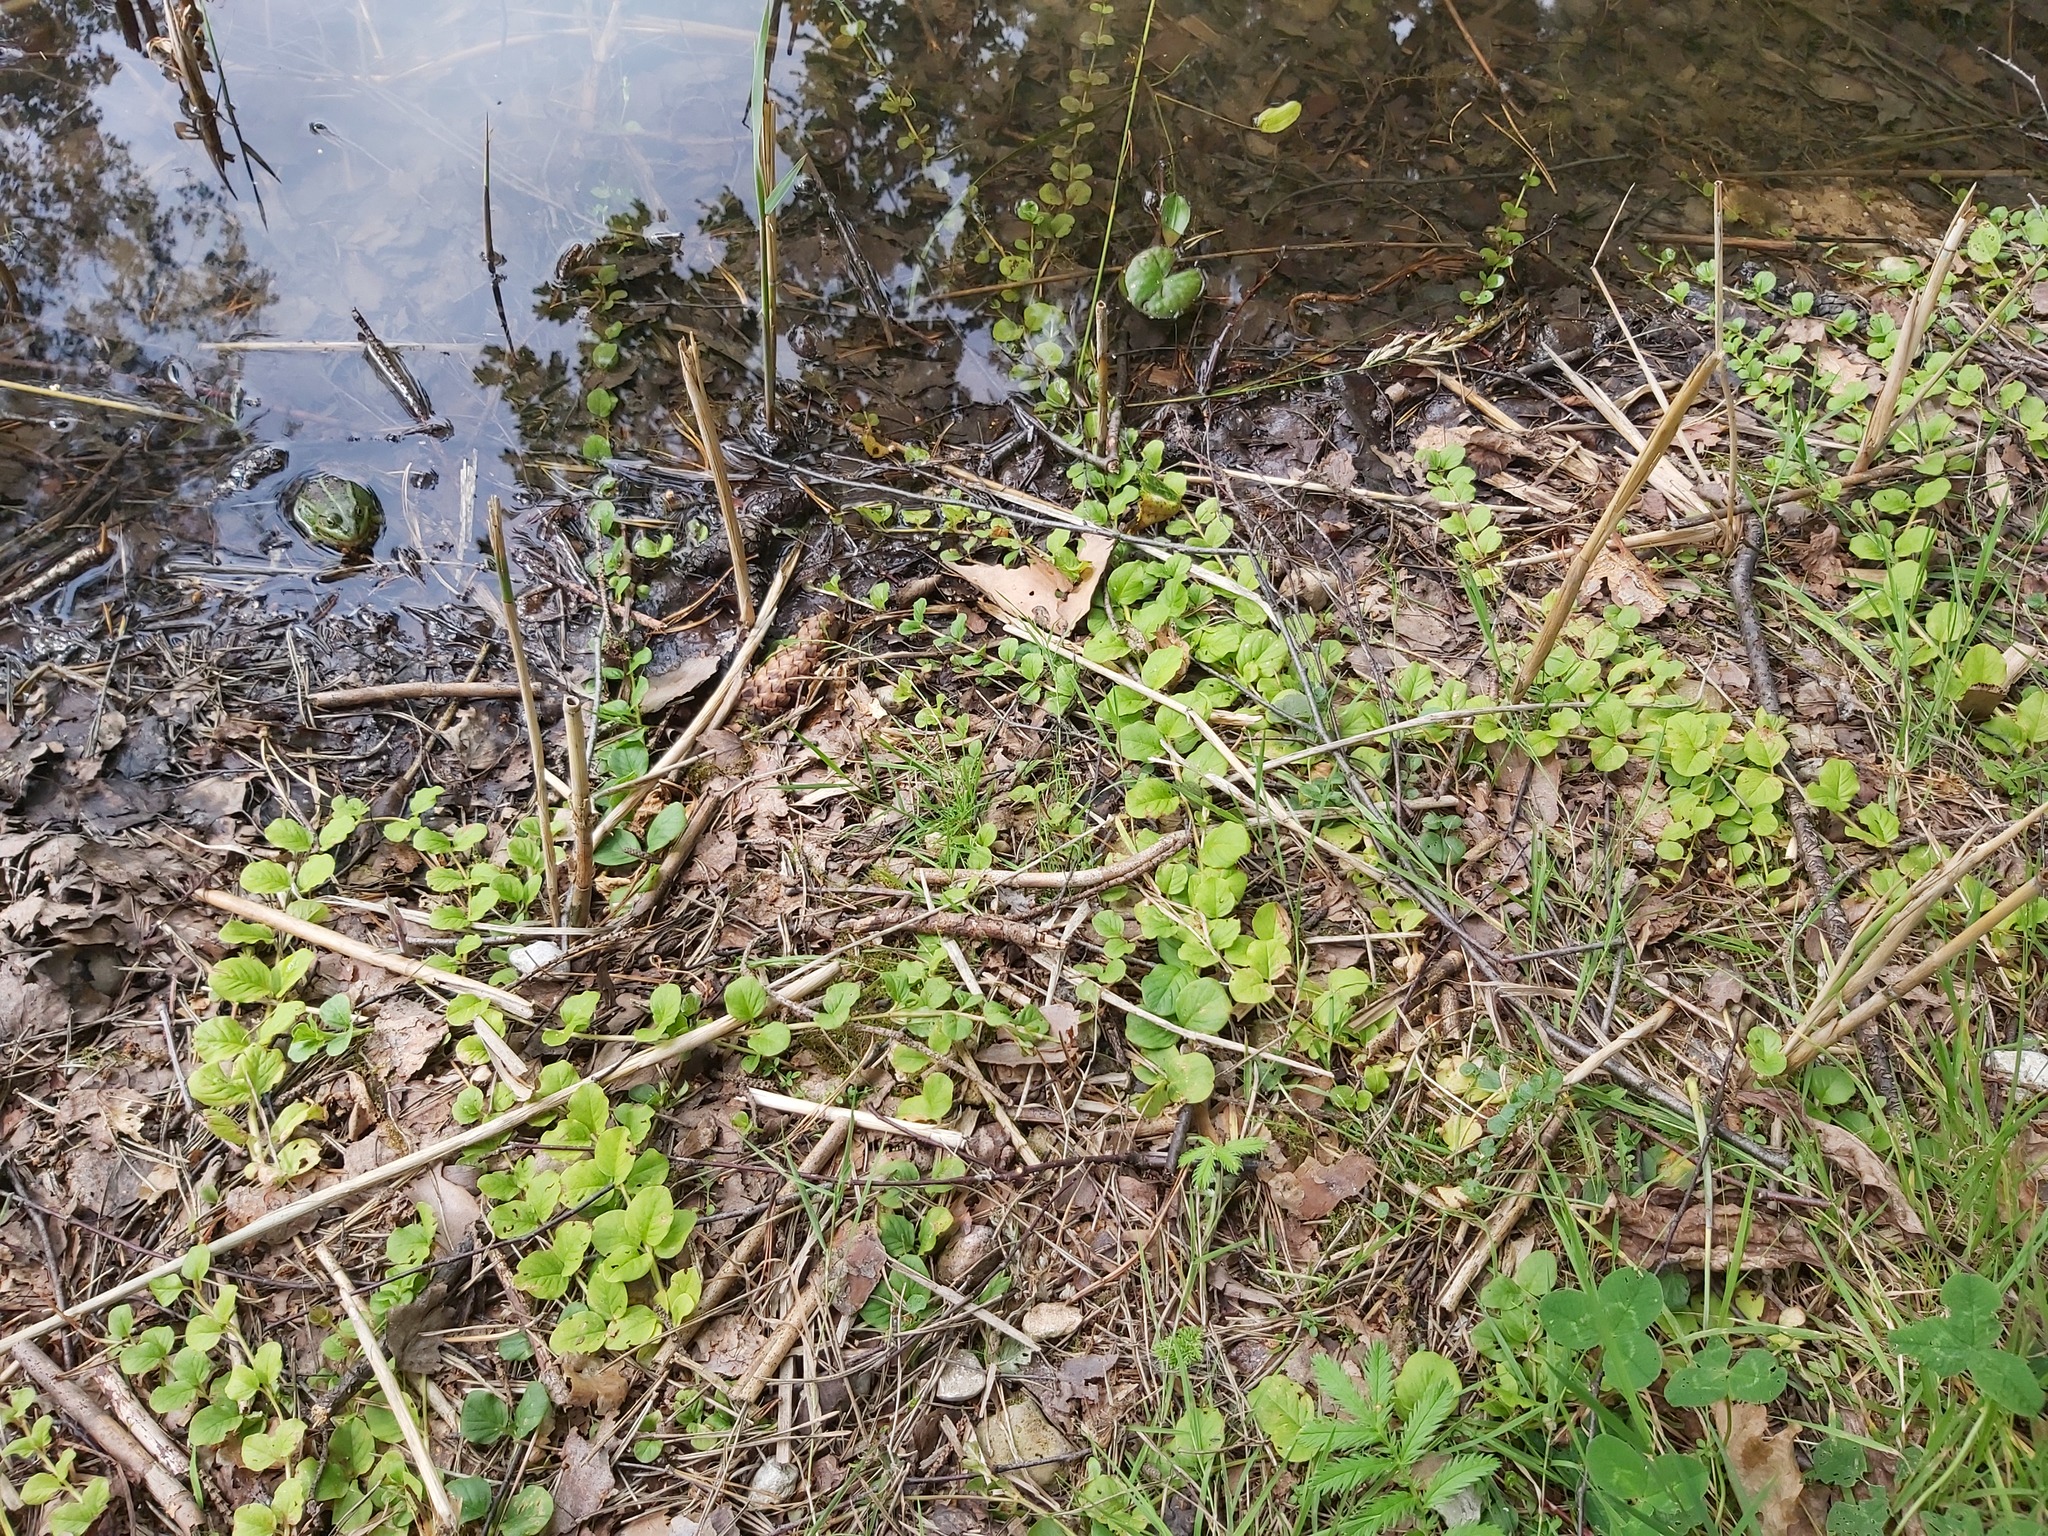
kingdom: Plantae
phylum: Tracheophyta
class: Magnoliopsida
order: Ericales
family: Primulaceae
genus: Lysimachia
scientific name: Lysimachia nummularia
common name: Moneywort
